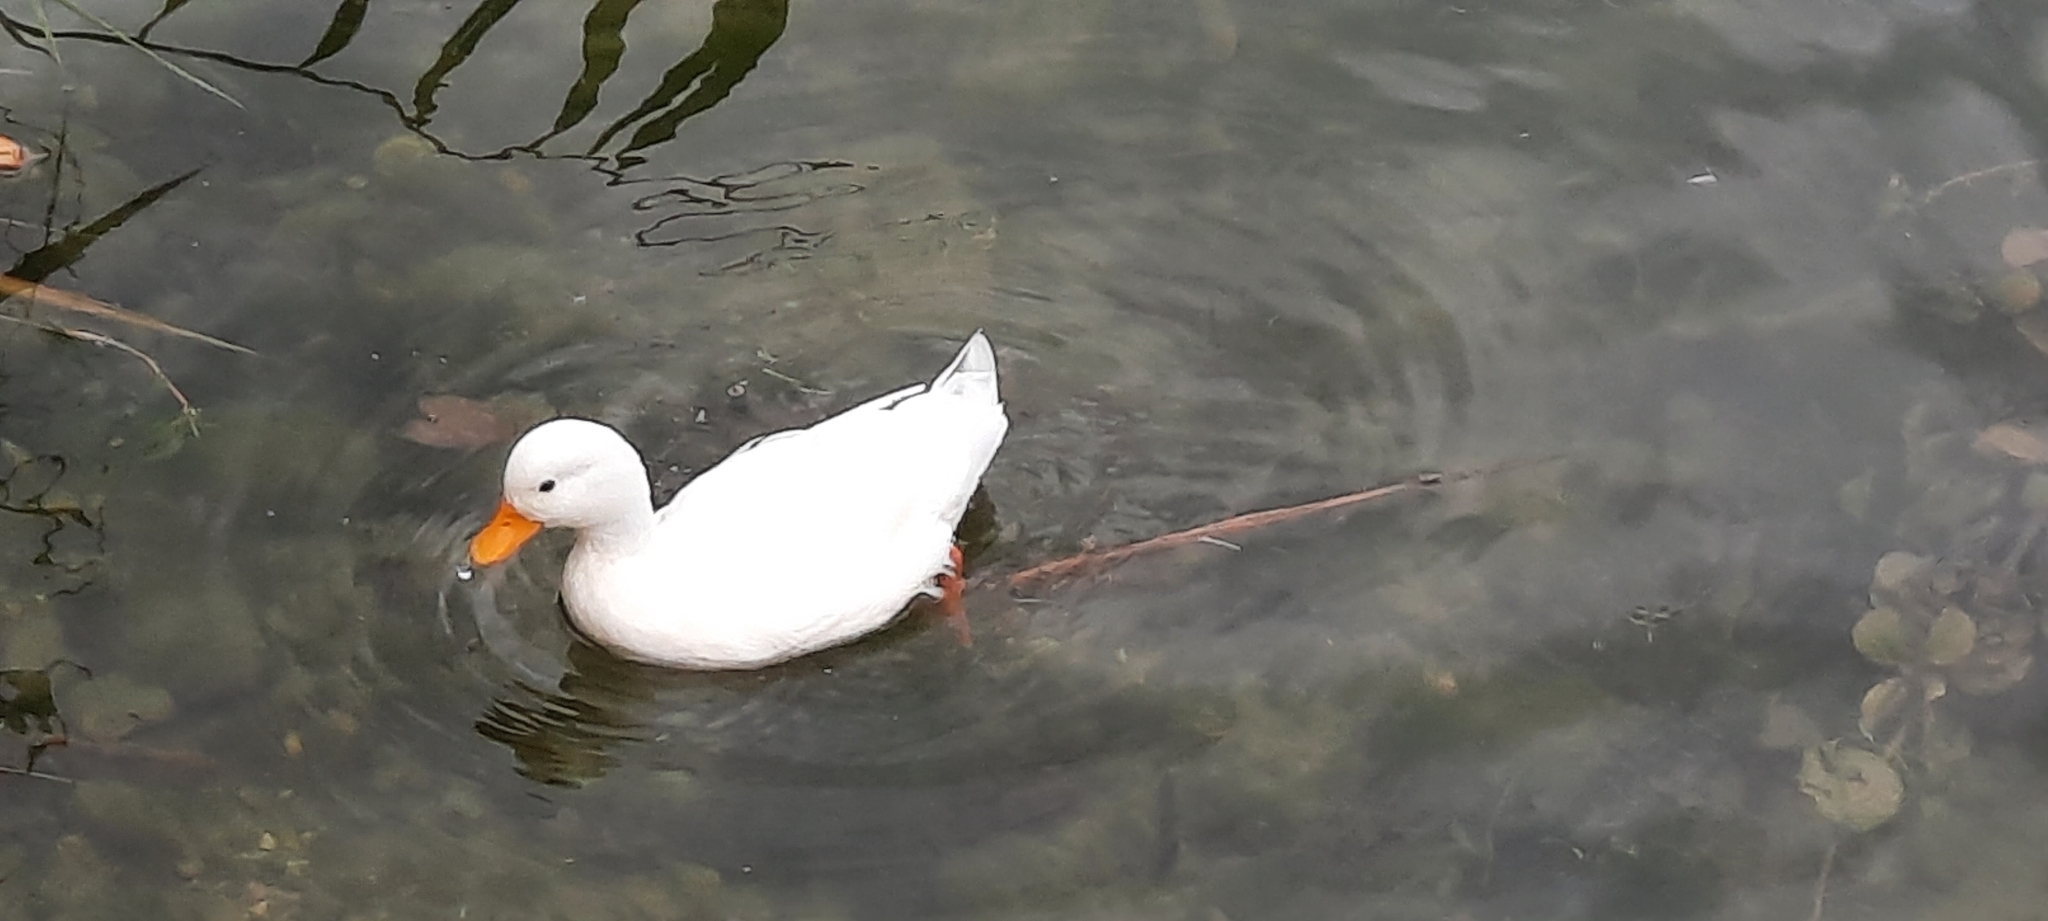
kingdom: Animalia
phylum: Chordata
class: Aves
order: Anseriformes
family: Anatidae
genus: Anas
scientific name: Anas platyrhynchos
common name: Mallard
